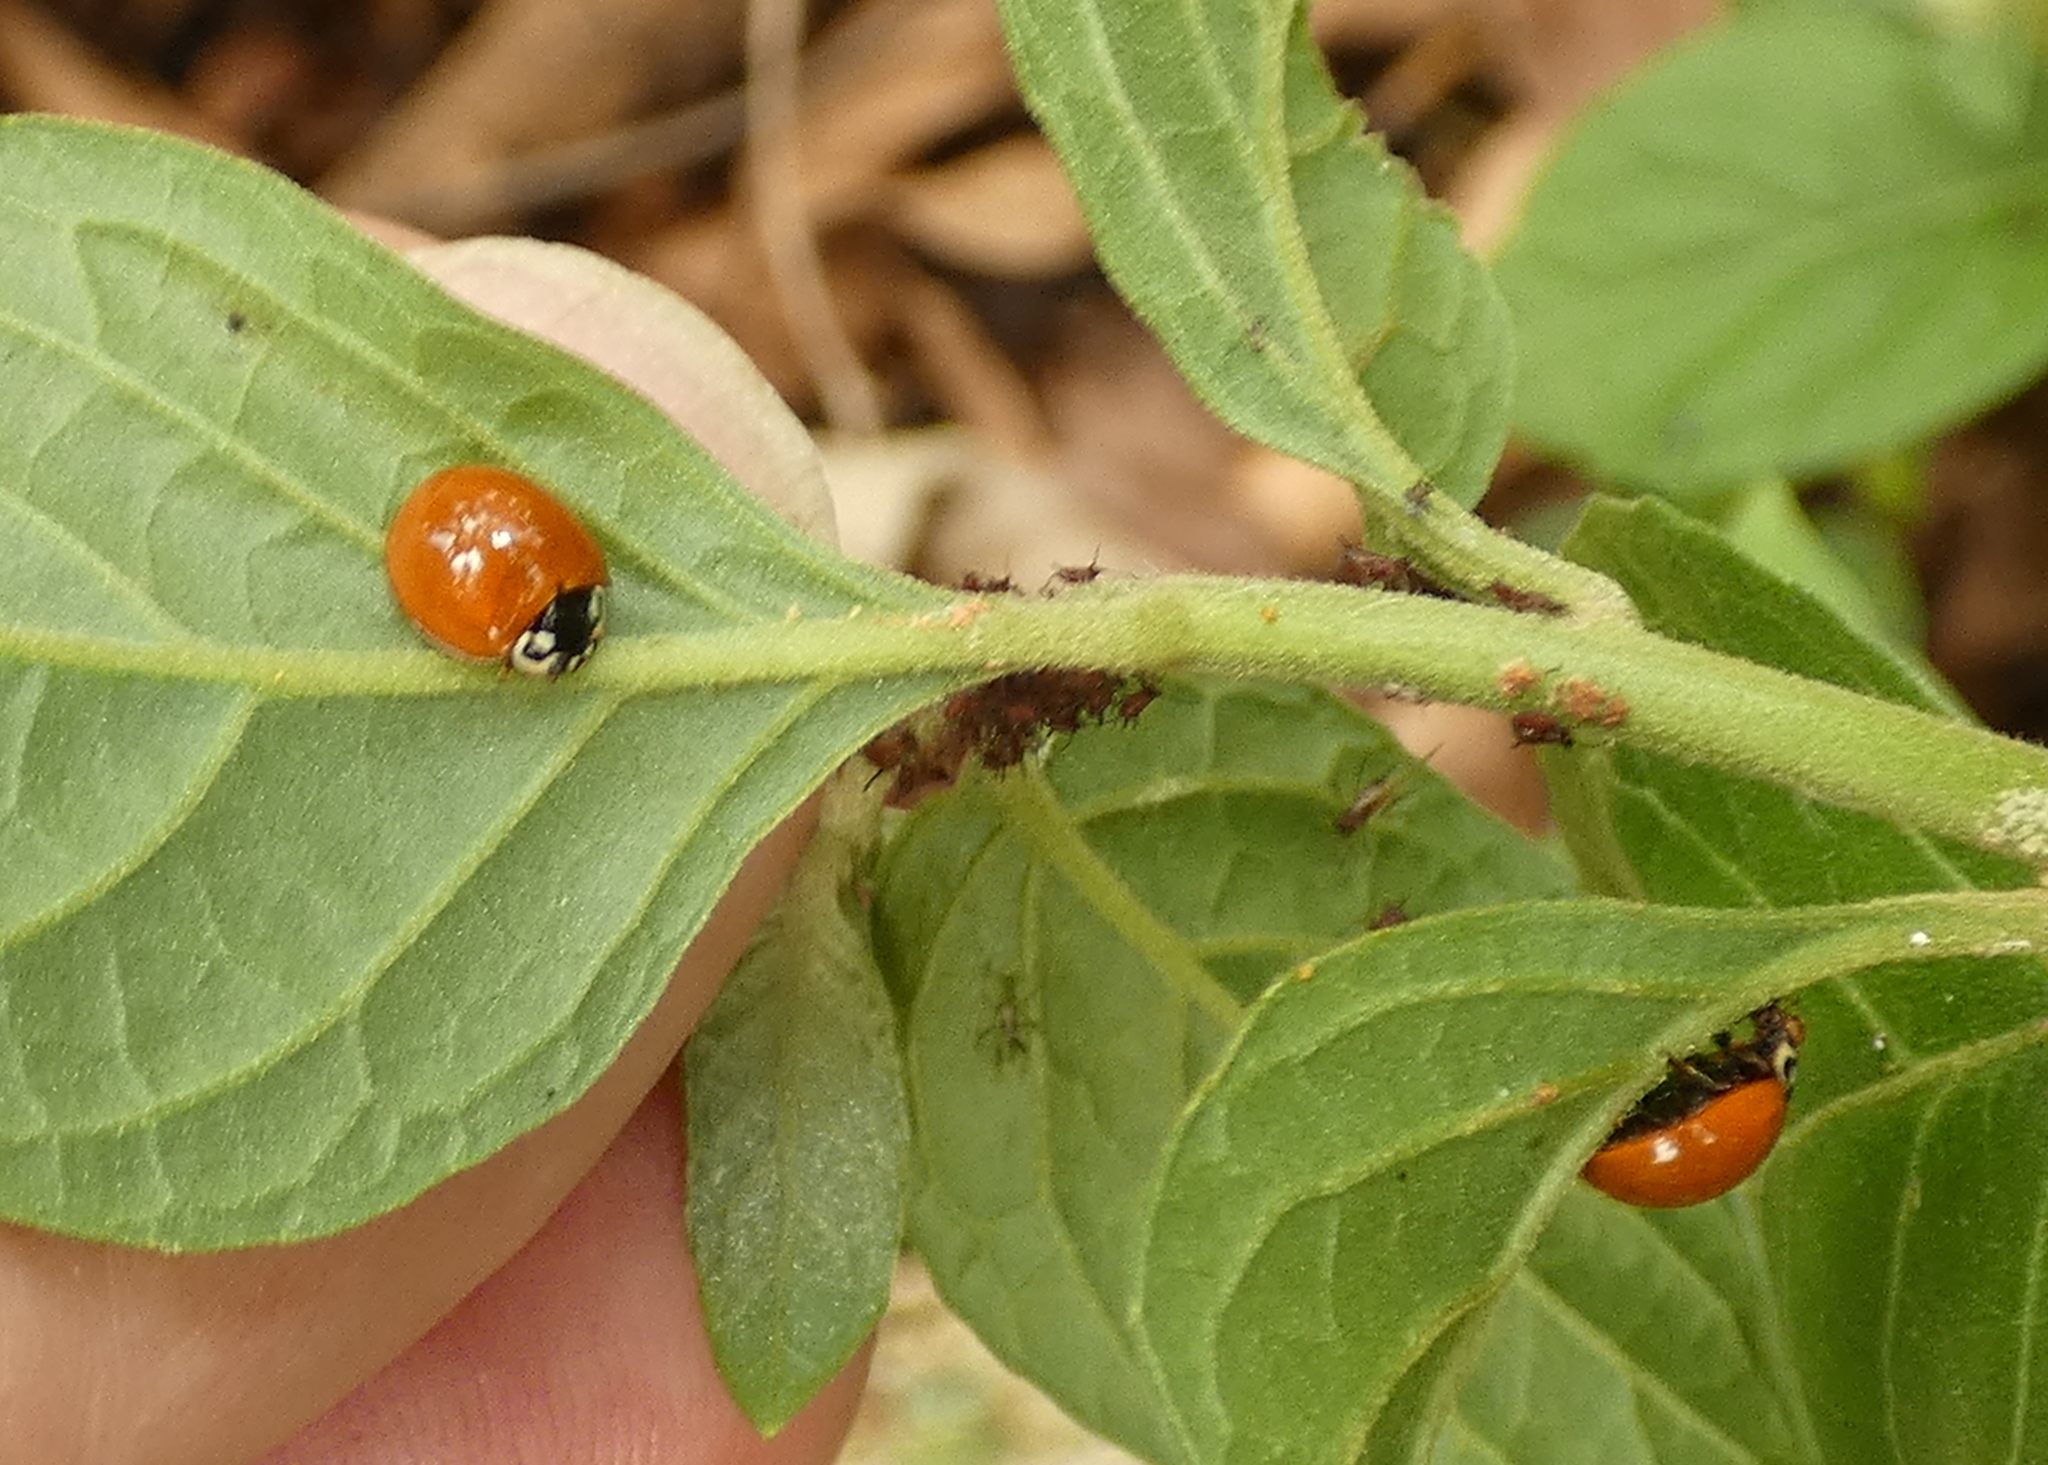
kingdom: Animalia
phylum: Arthropoda
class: Insecta
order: Coleoptera
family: Coccinellidae
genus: Cycloneda
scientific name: Cycloneda sanguinea
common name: Ladybird beetle
